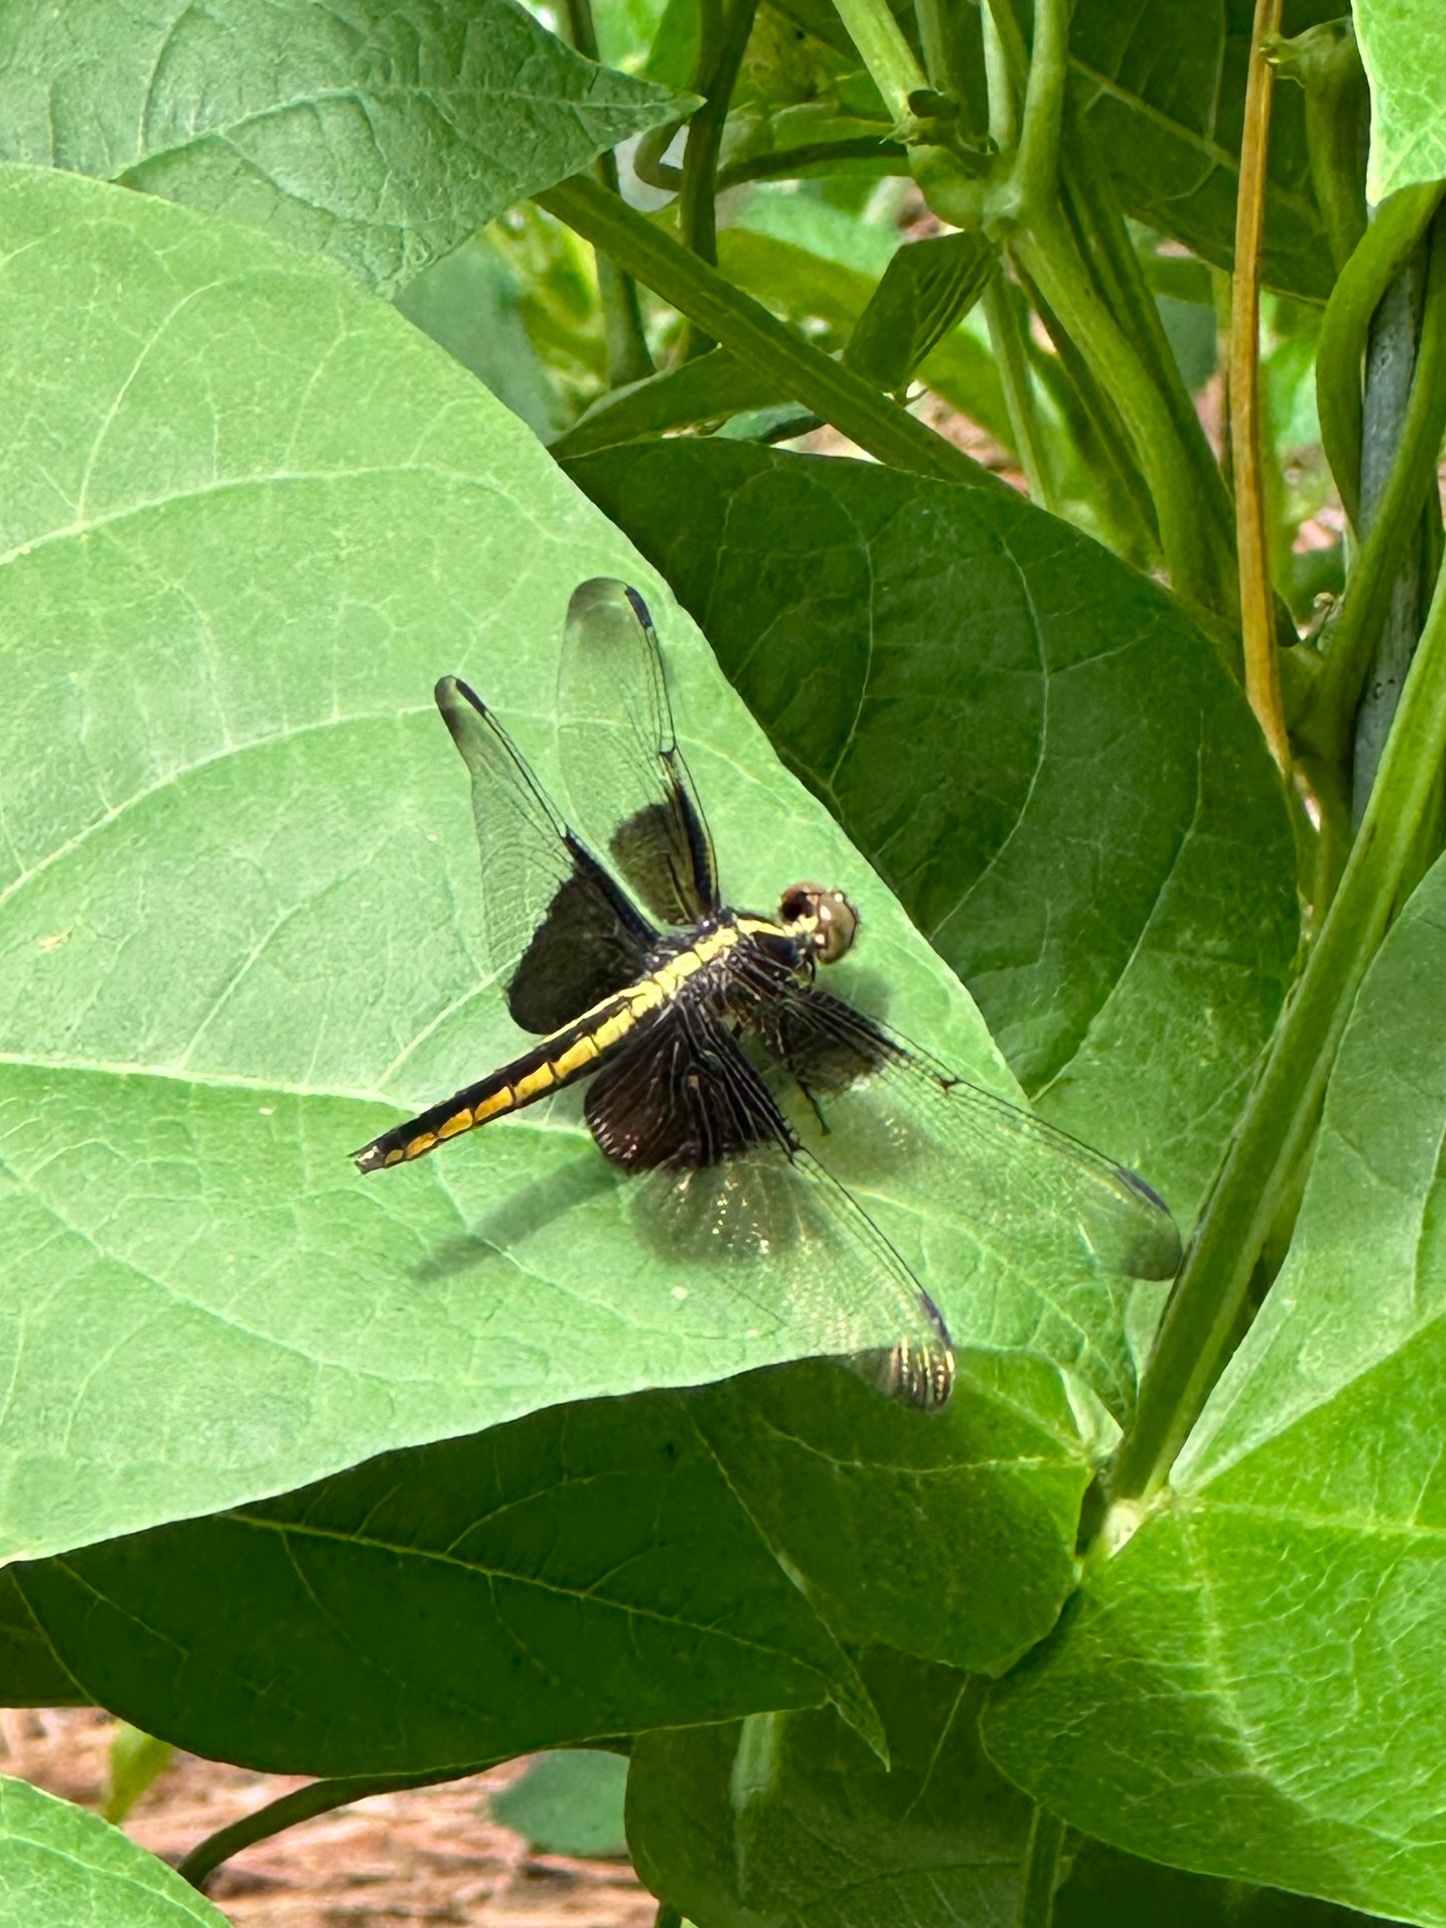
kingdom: Animalia
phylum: Arthropoda
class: Insecta
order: Odonata
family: Libellulidae
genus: Libellula
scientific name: Libellula luctuosa
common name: Widow skimmer
